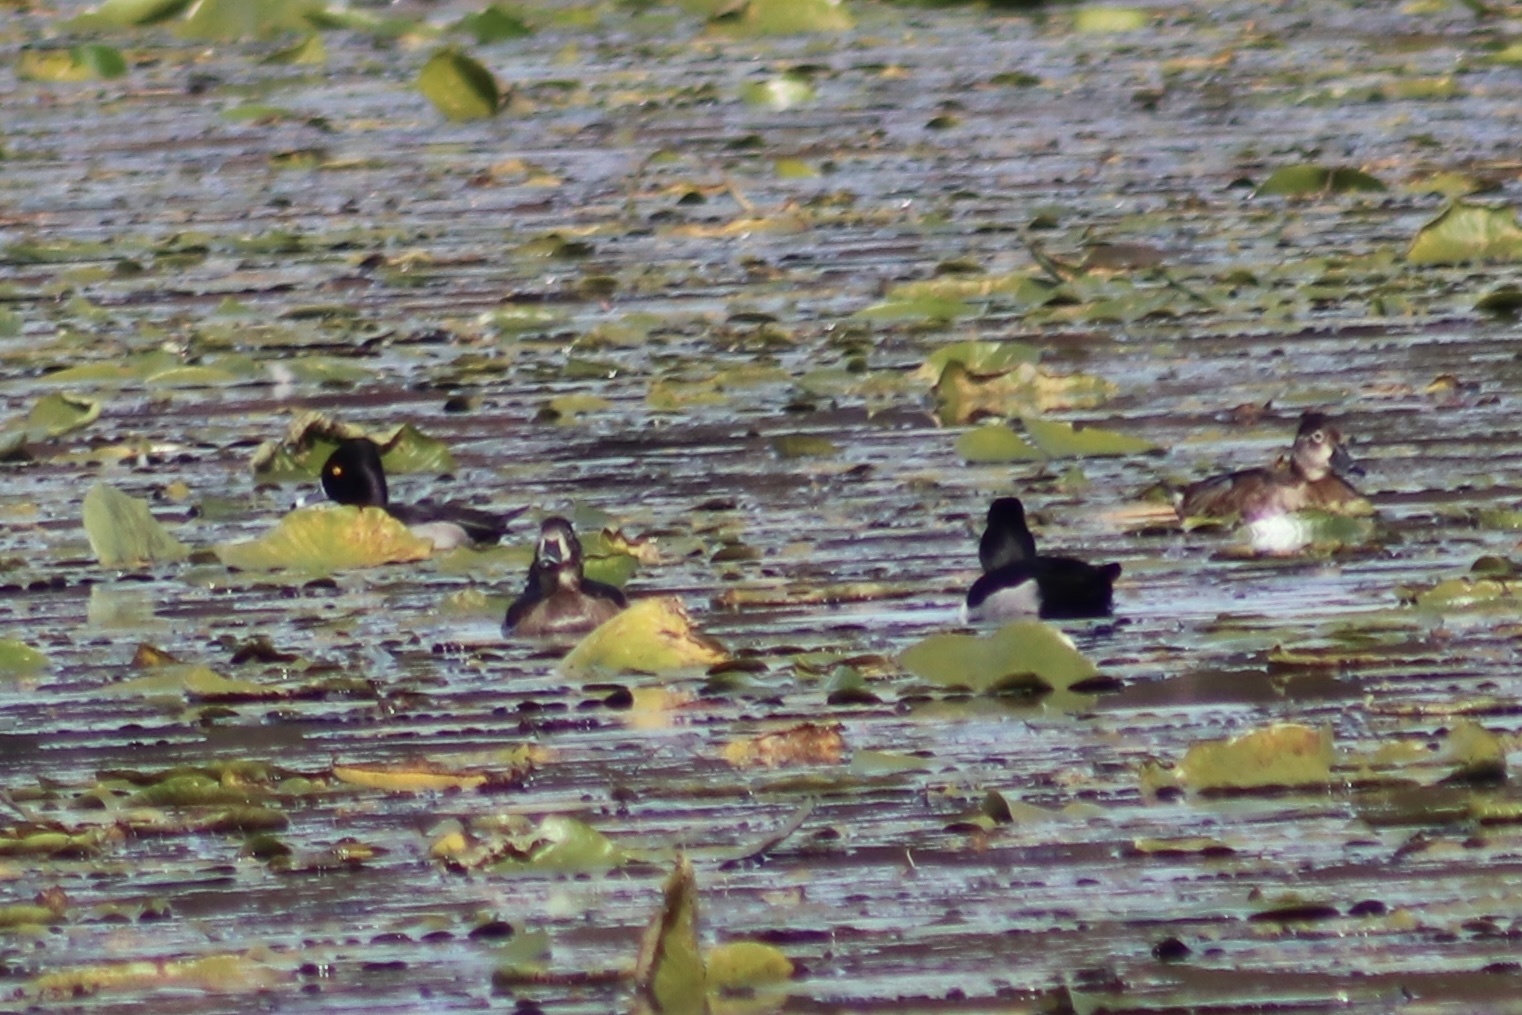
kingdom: Animalia
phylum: Chordata
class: Aves
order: Anseriformes
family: Anatidae
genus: Aythya
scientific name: Aythya collaris
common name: Ring-necked duck
